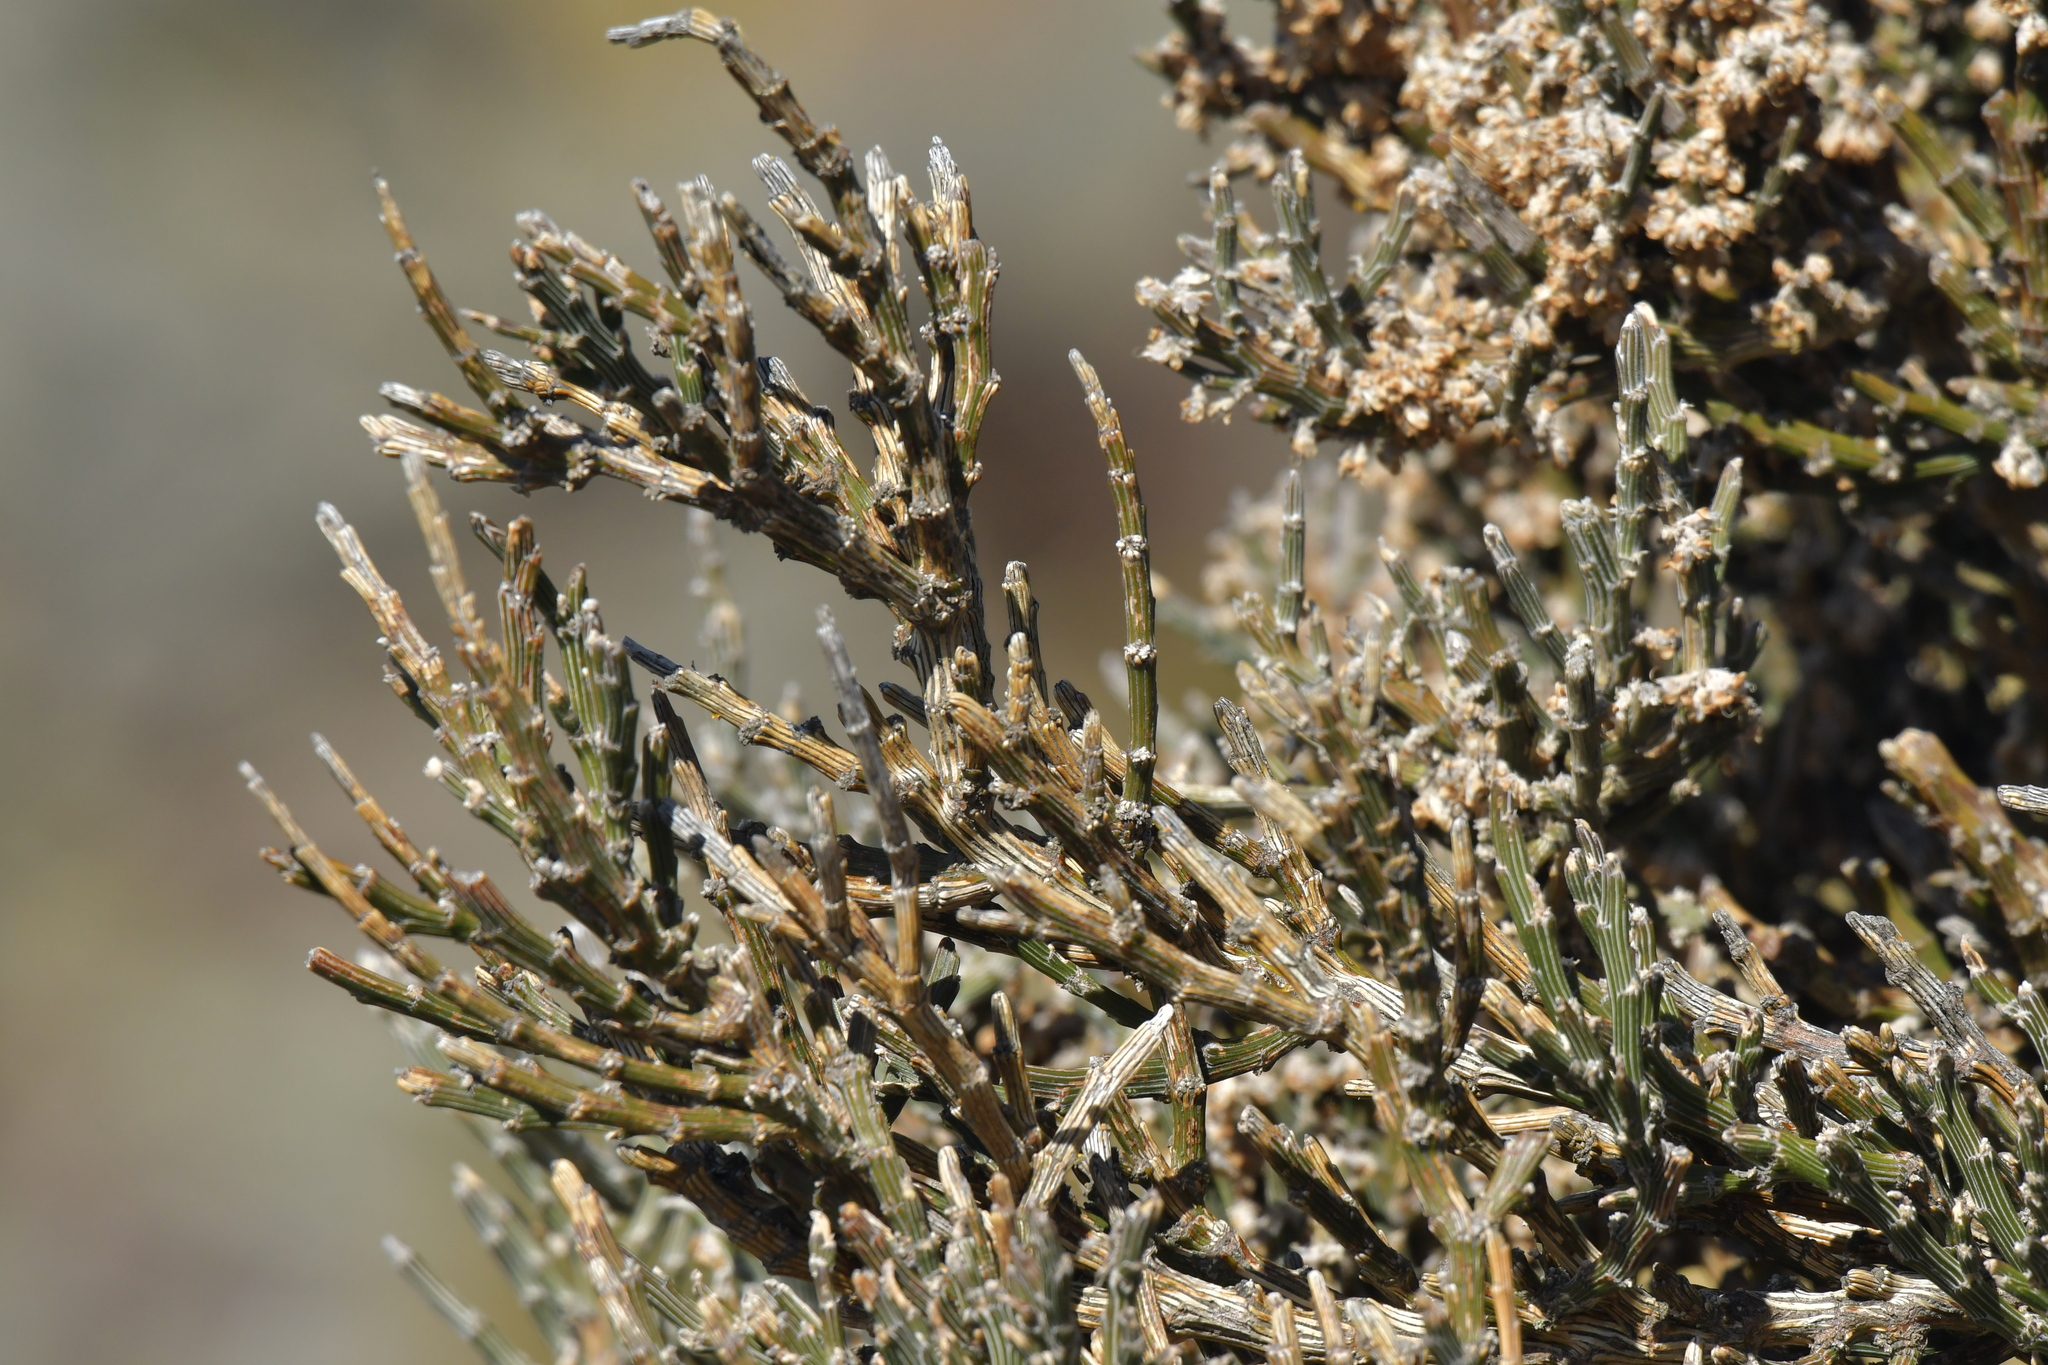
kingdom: Plantae
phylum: Tracheophyta
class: Magnoliopsida
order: Fabales
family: Fabaceae
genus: Carmichaelia
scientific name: Carmichaelia crassicaulis
